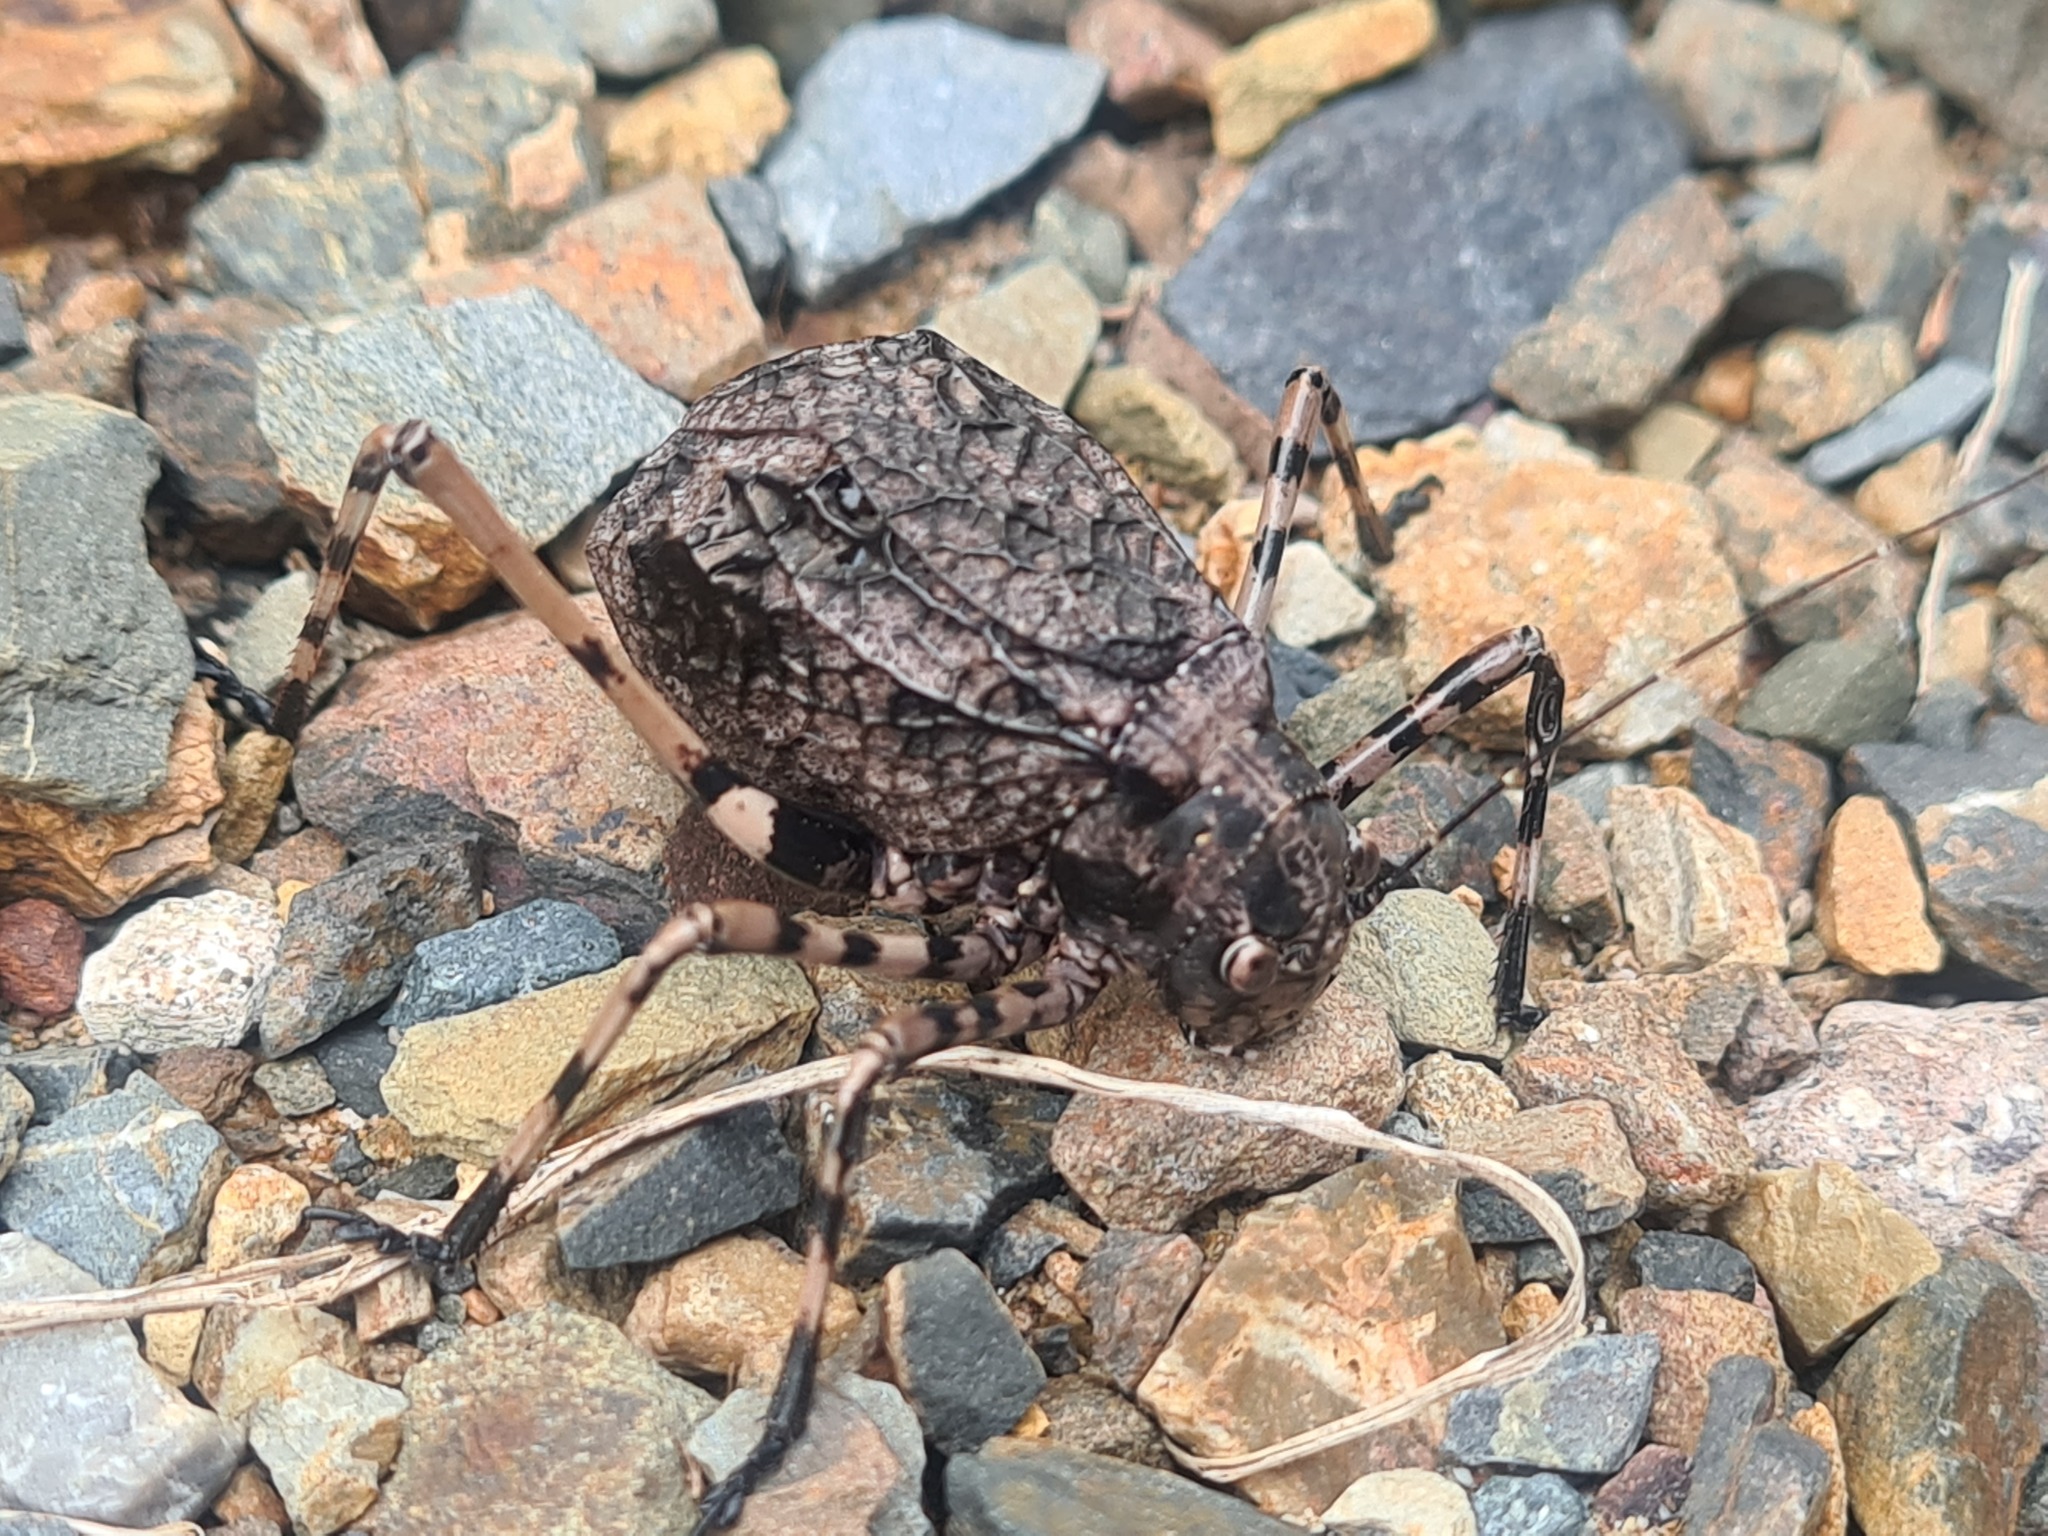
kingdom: Animalia
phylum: Arthropoda
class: Insecta
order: Orthoptera
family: Tettigoniidae
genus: Acripeza
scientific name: Acripeza reticulata
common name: Mountain katydid
